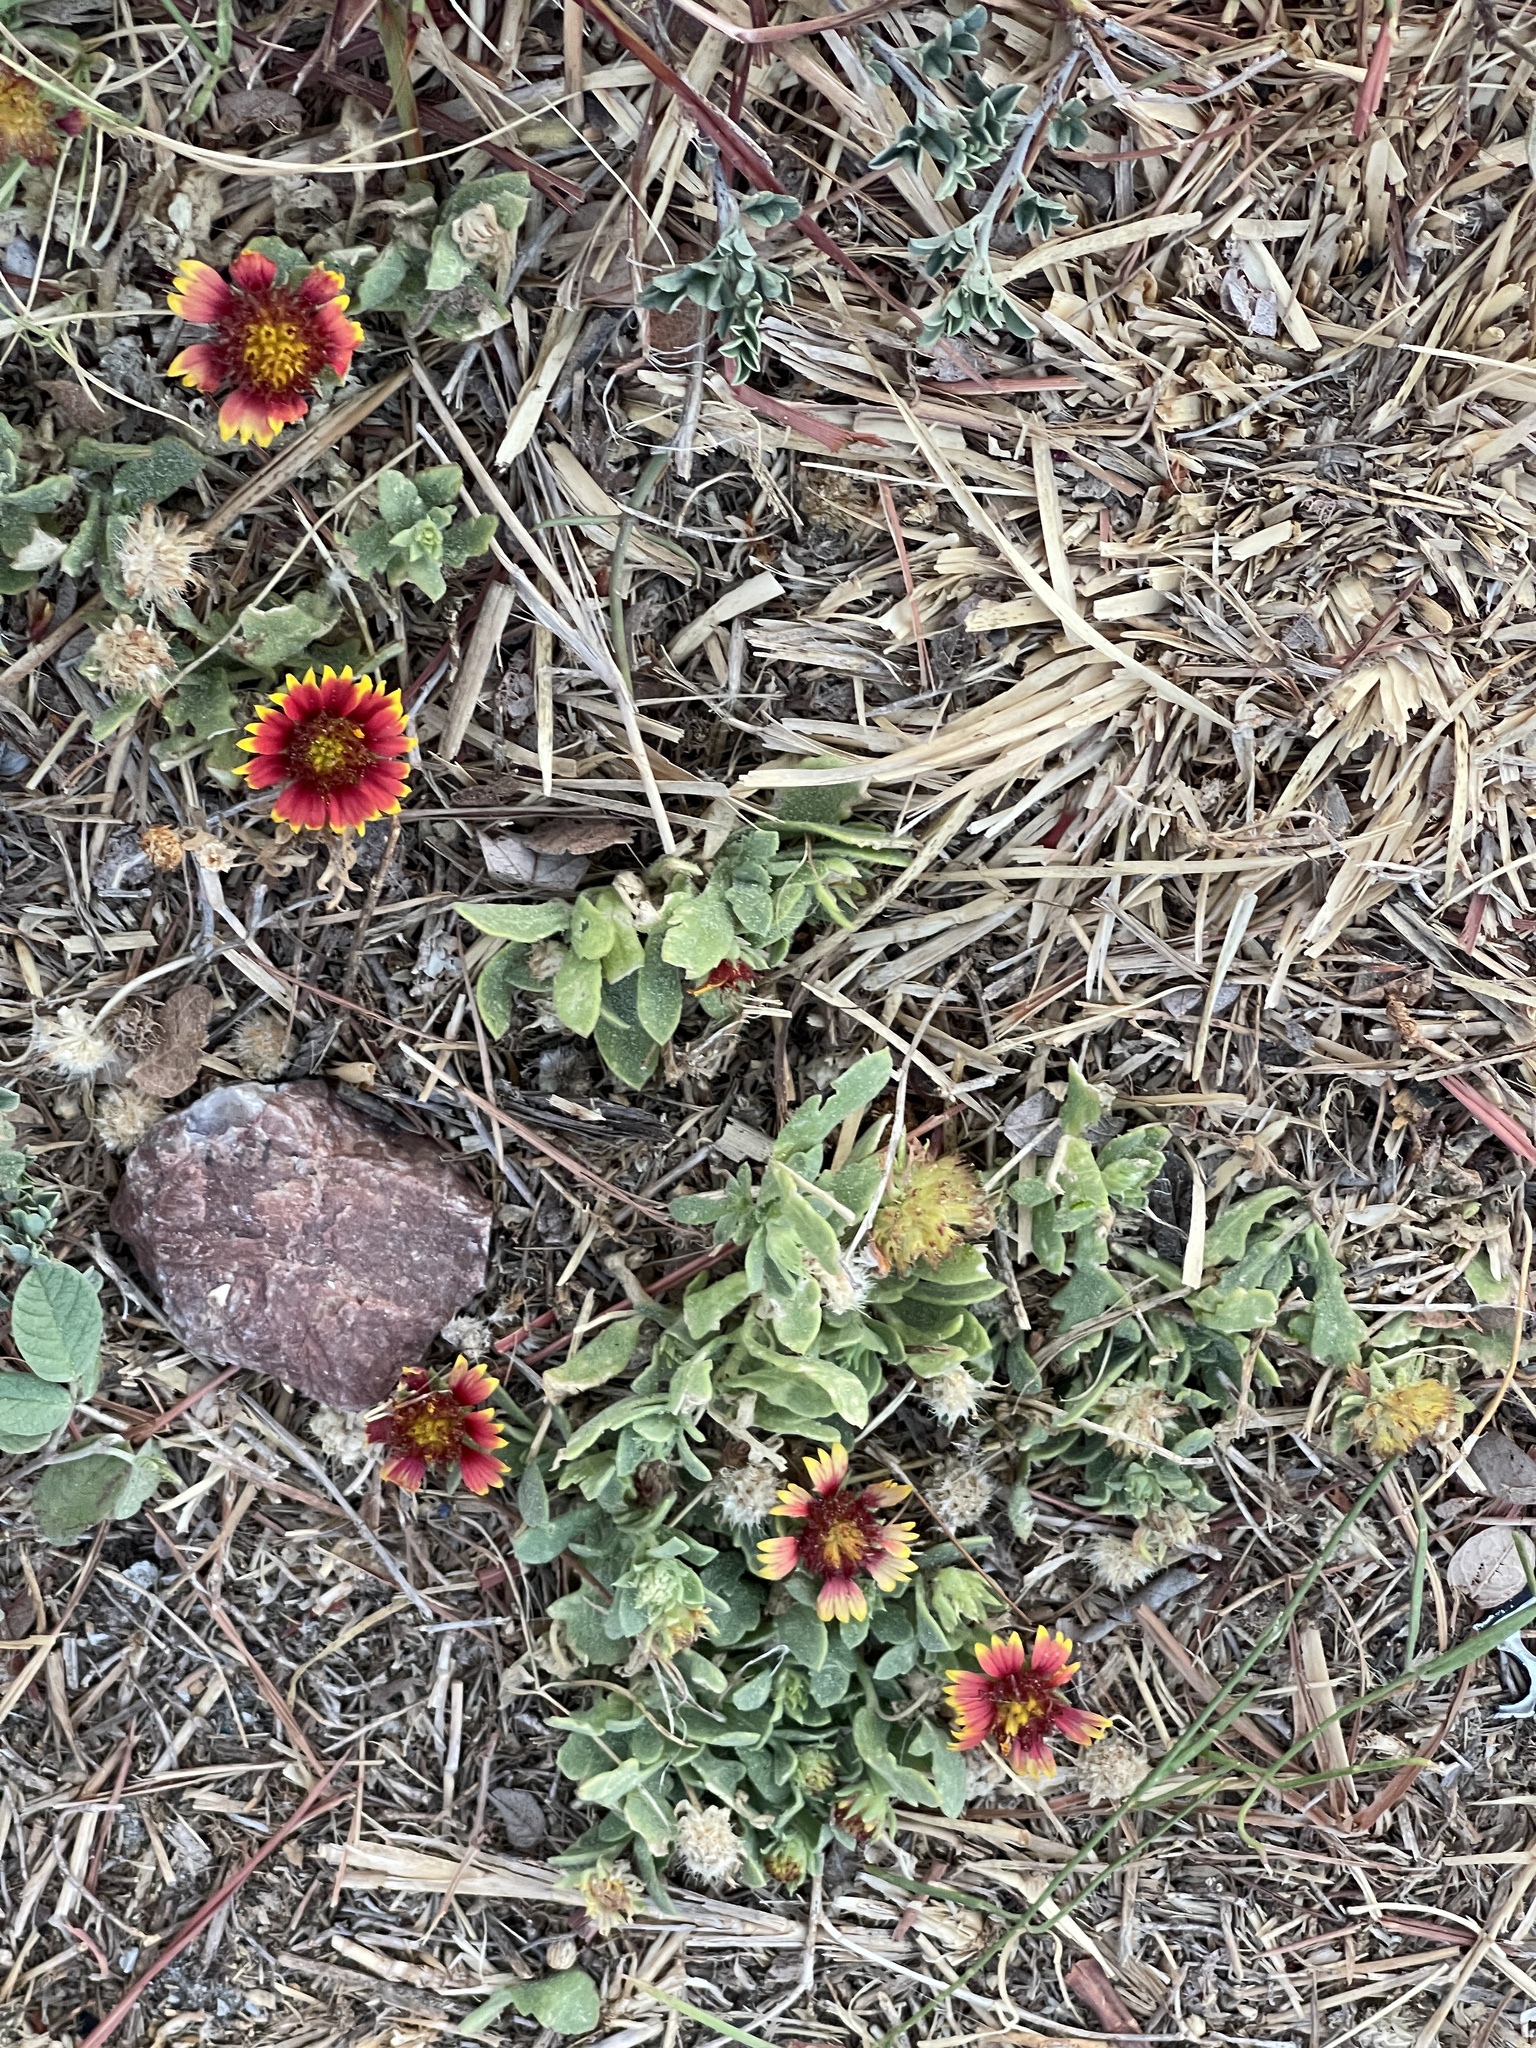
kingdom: Plantae
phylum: Tracheophyta
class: Magnoliopsida
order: Asterales
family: Asteraceae
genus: Gaillardia
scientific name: Gaillardia pulchella
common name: Firewheel
